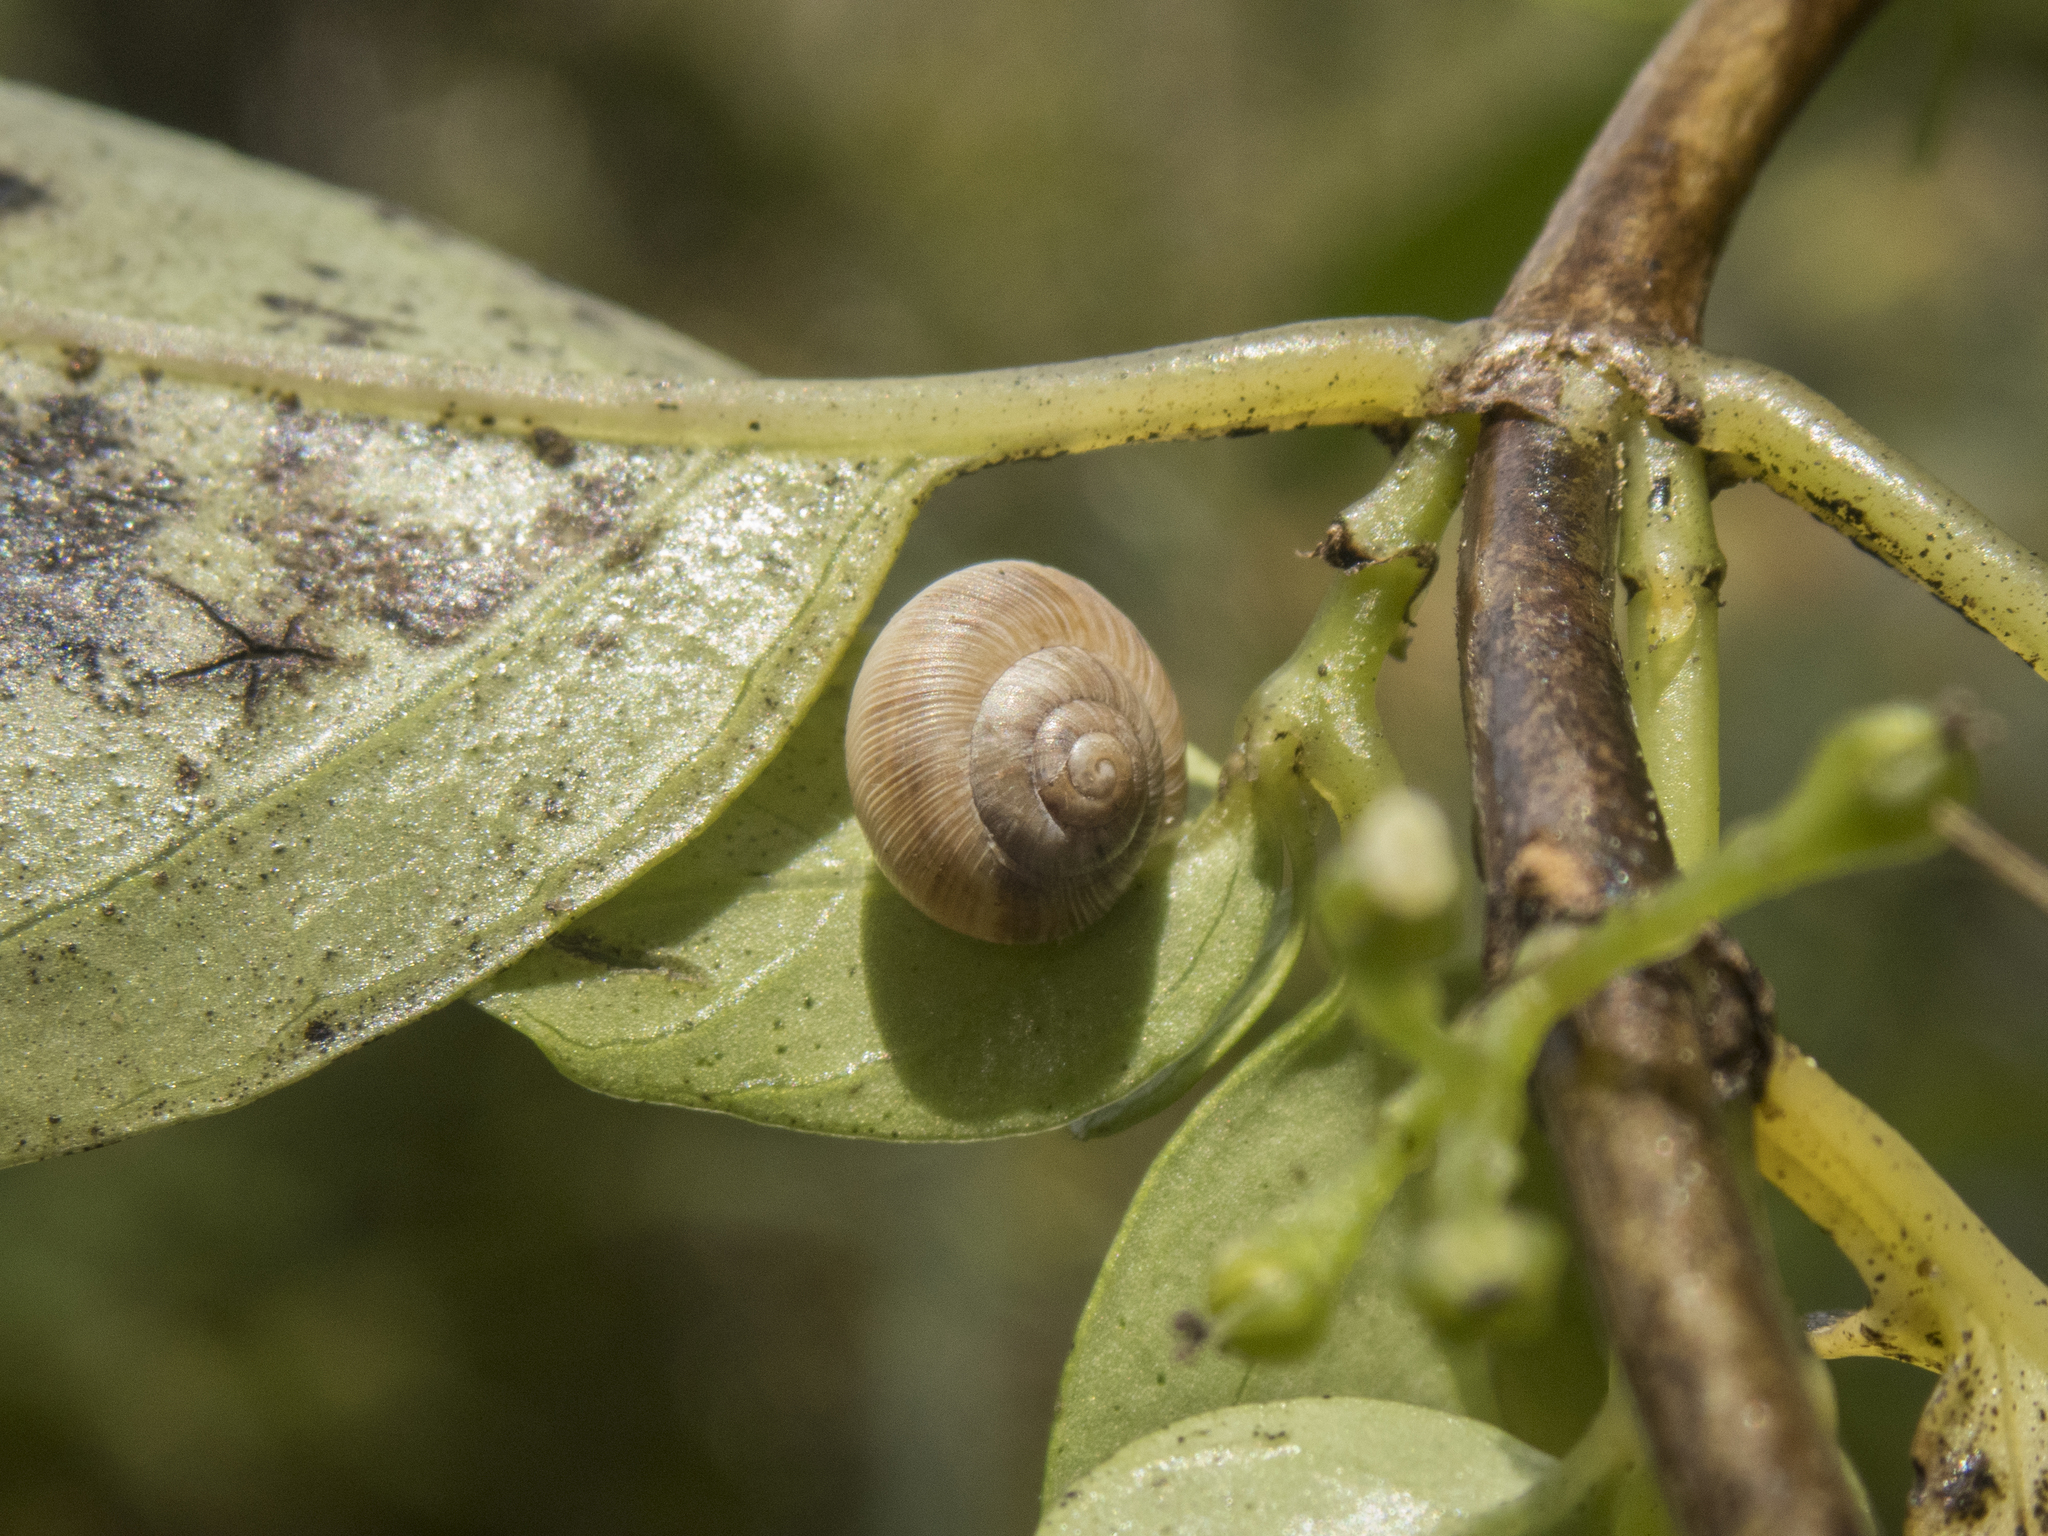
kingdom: Animalia
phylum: Mollusca
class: Gastropoda
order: Stylommatophora
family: Charopidae
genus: Serpho
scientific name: Serpho
